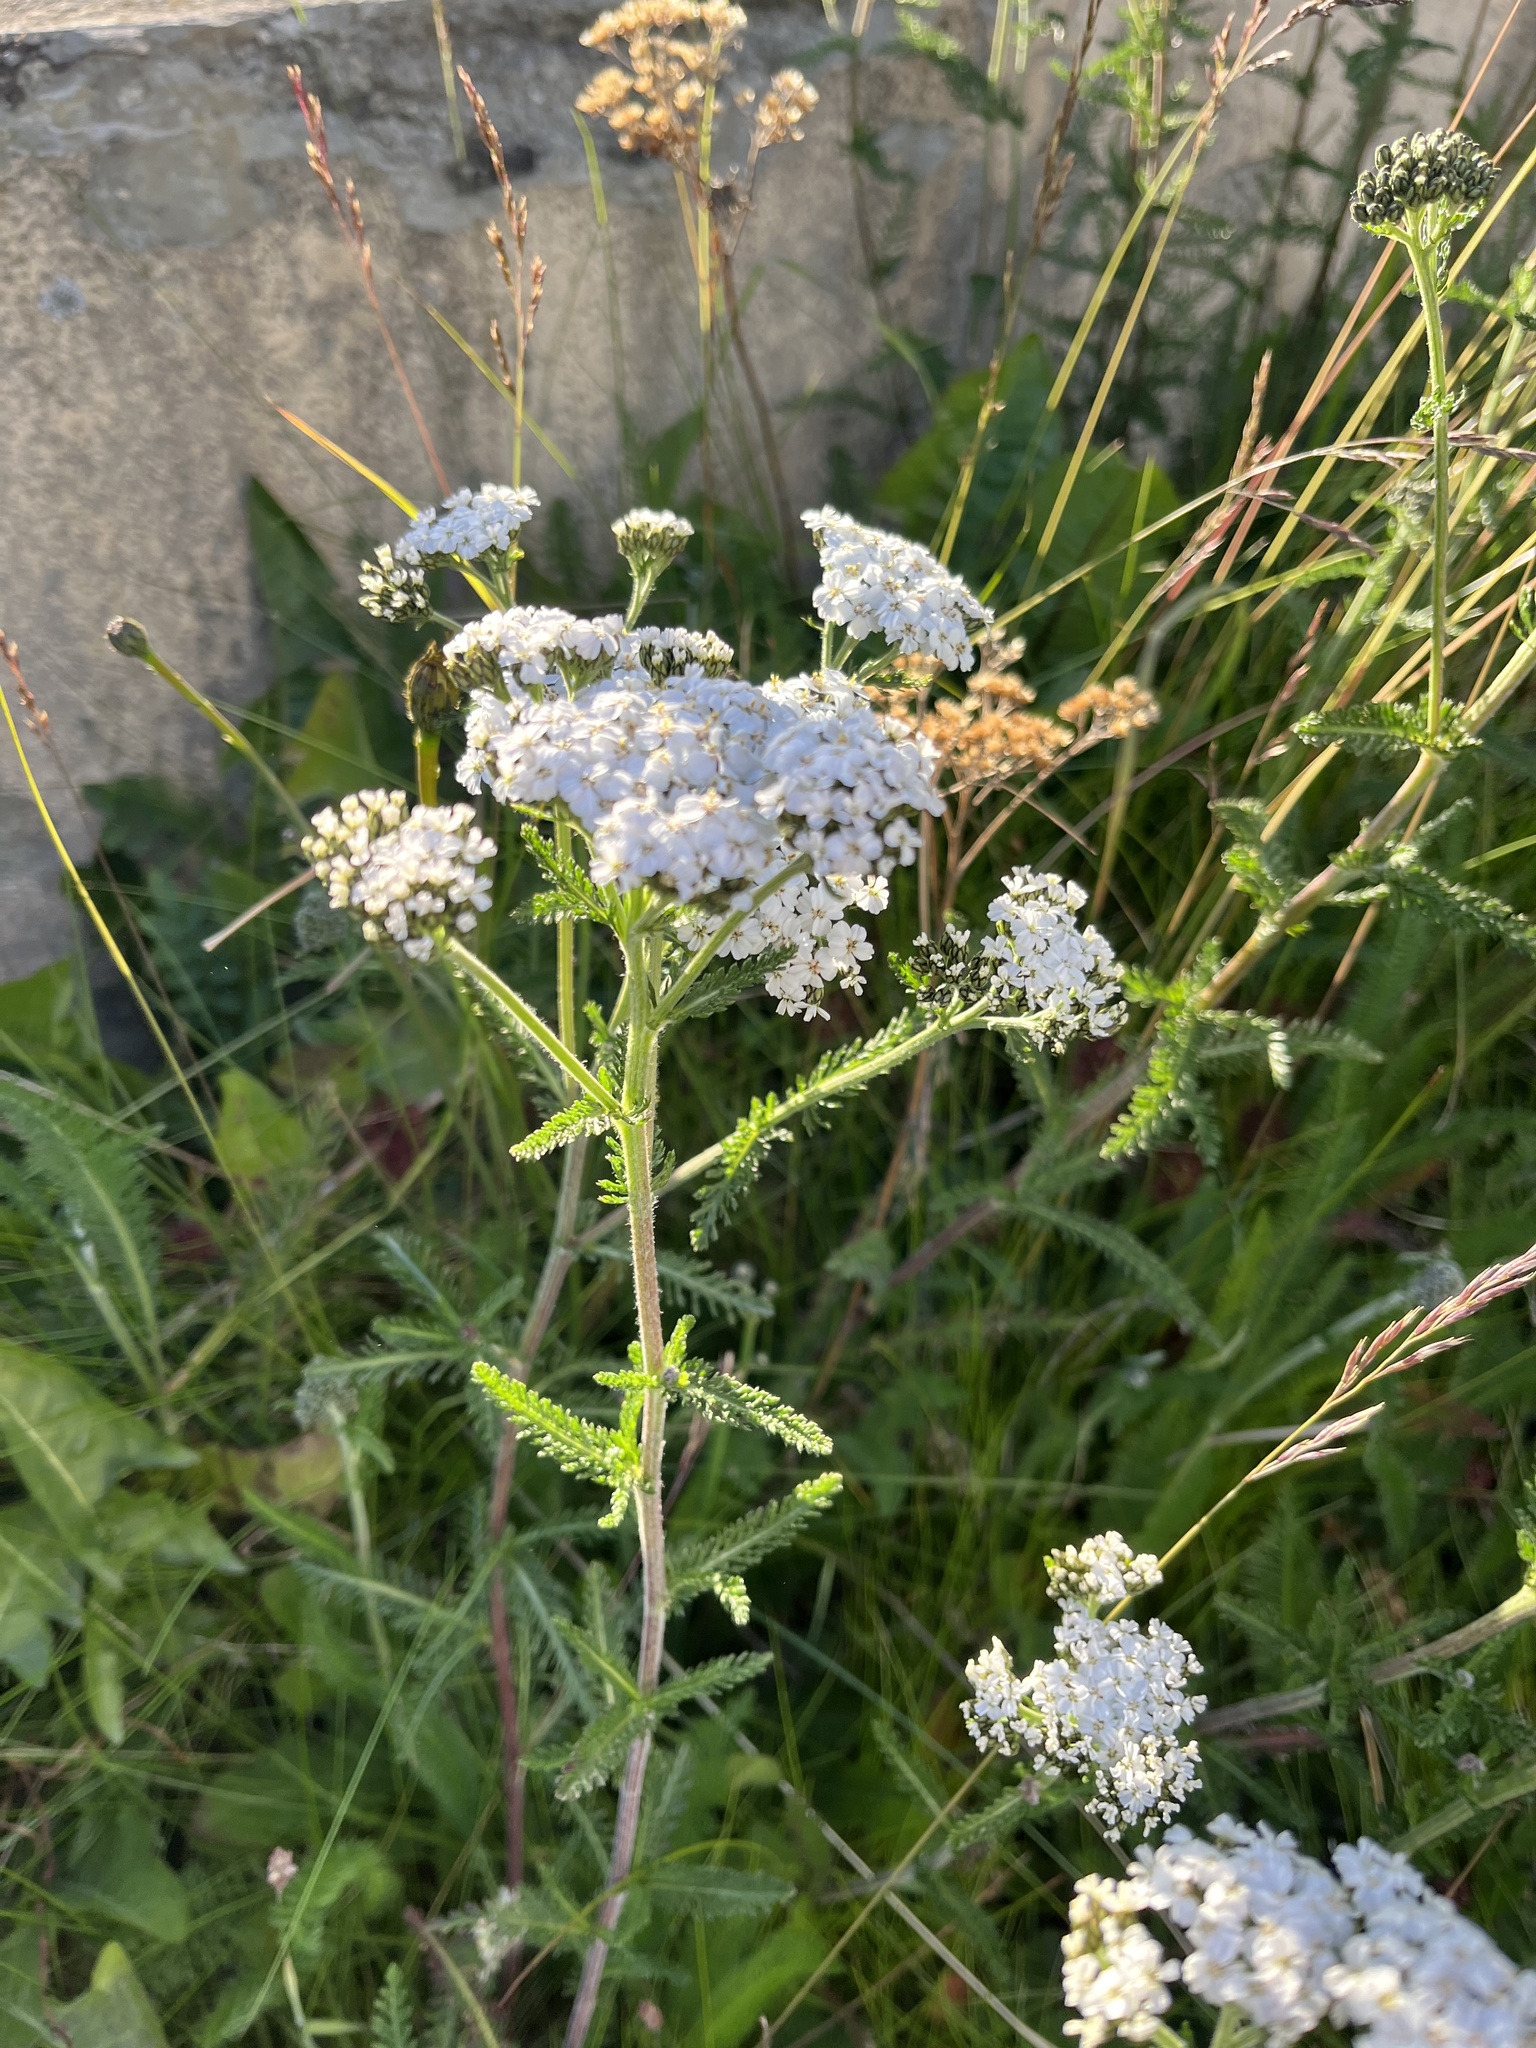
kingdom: Plantae
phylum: Tracheophyta
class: Magnoliopsida
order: Asterales
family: Asteraceae
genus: Achillea
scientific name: Achillea millefolium
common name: Yarrow
